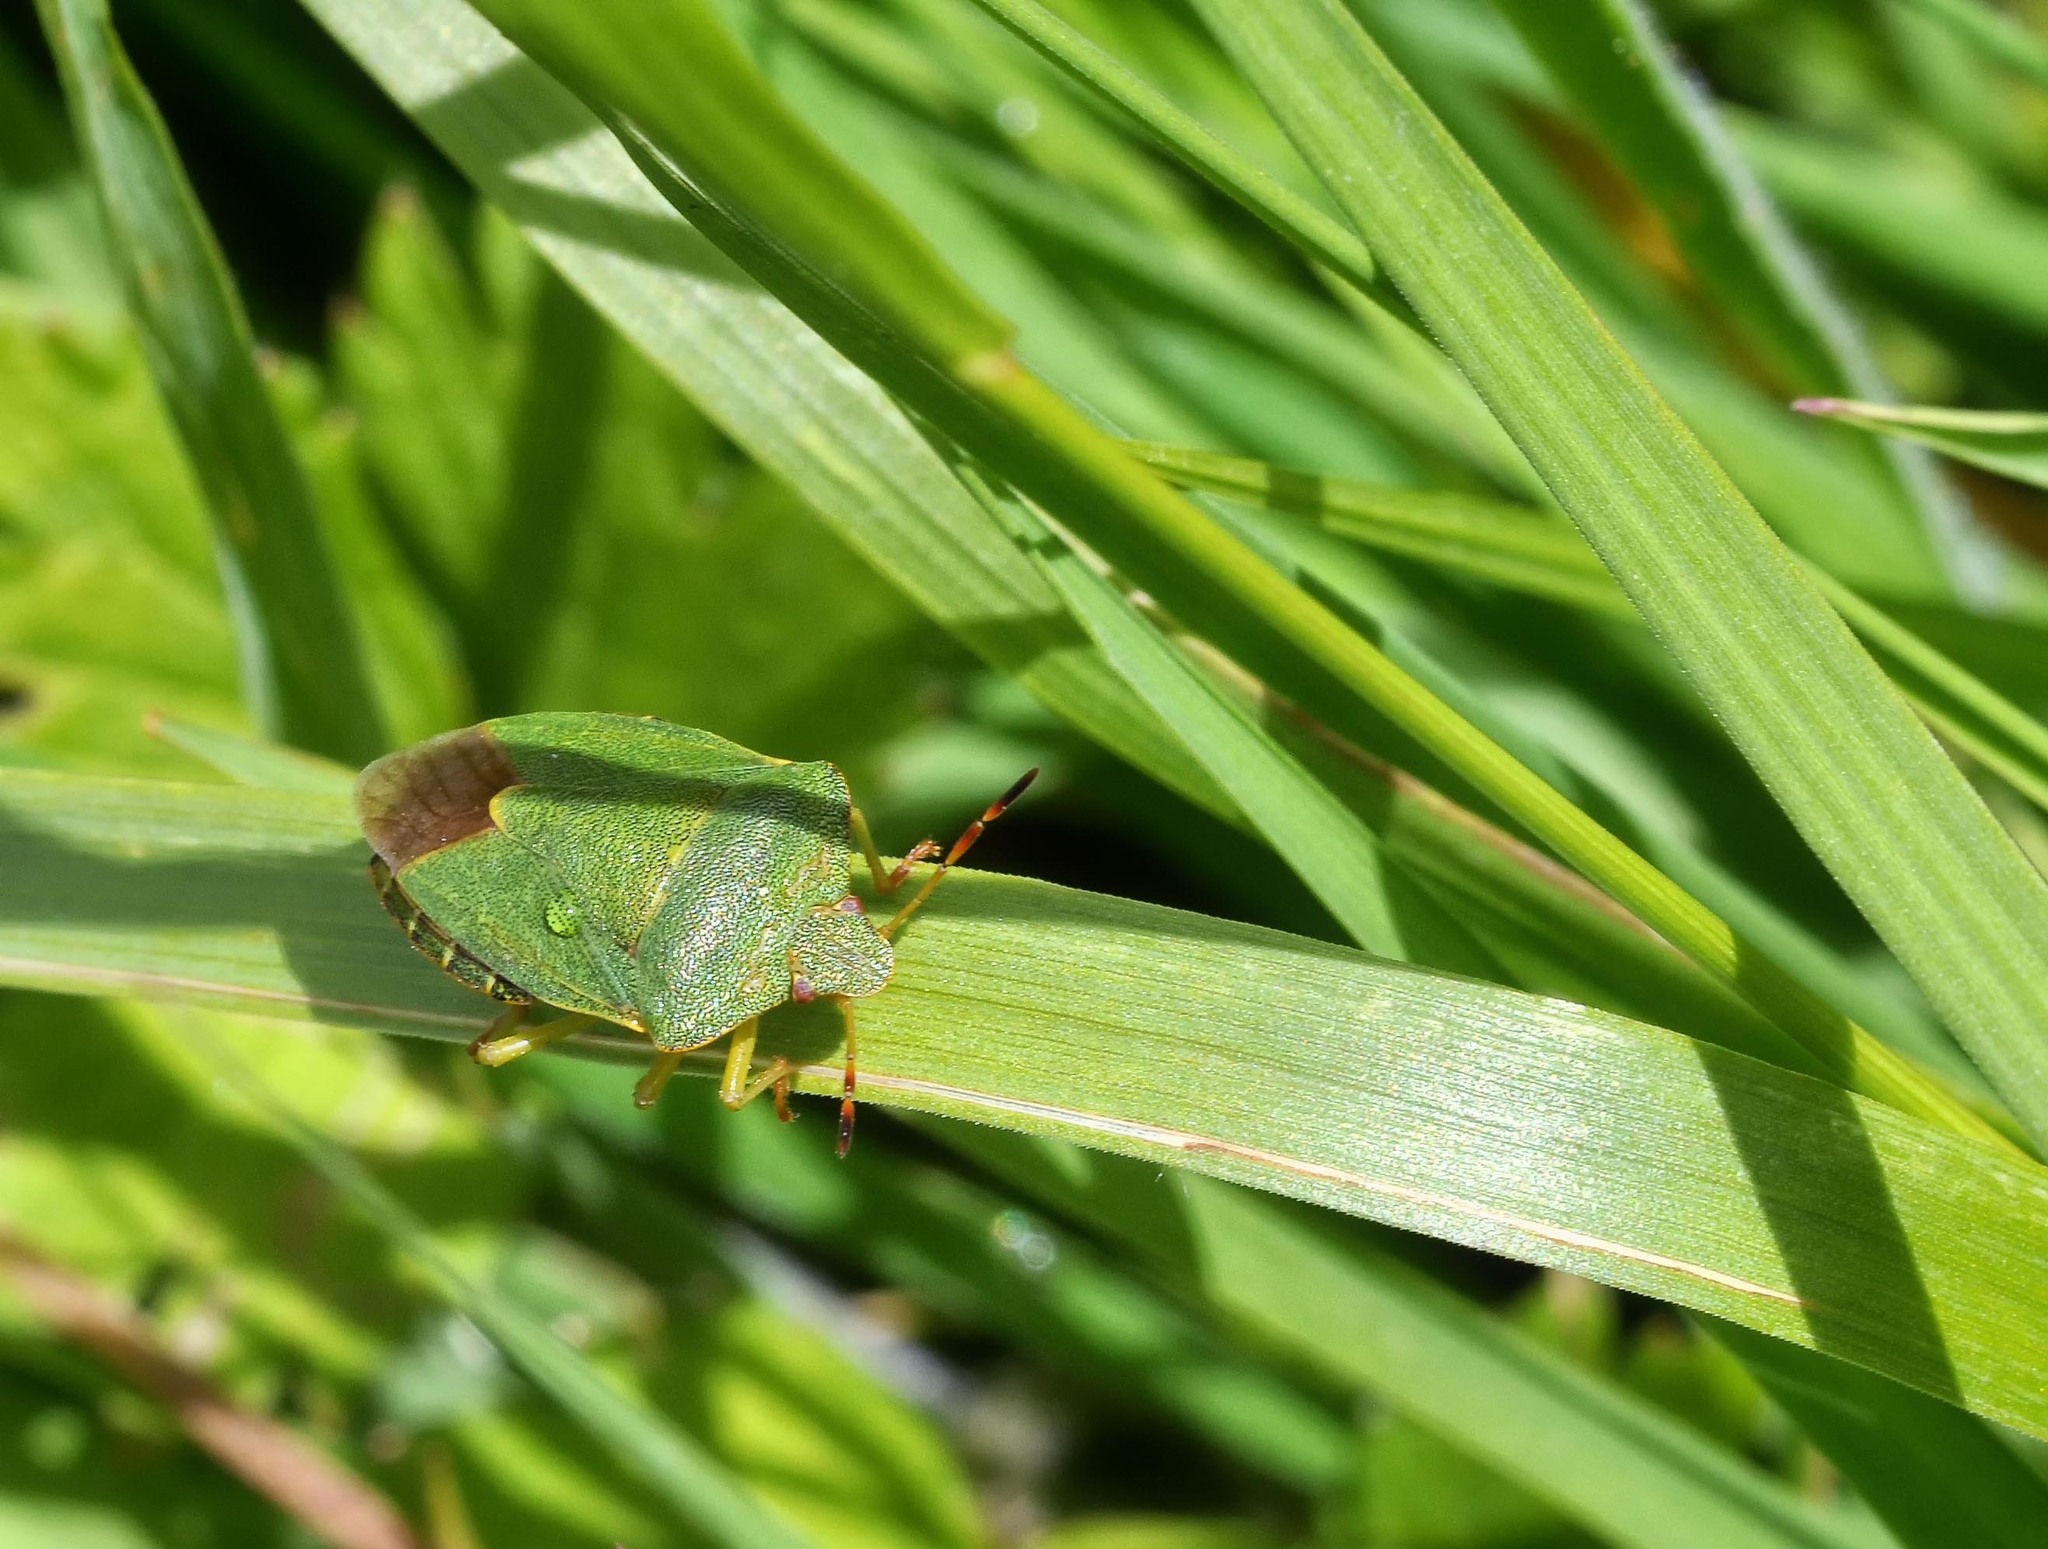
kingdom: Animalia
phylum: Arthropoda
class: Insecta
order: Hemiptera
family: Pentatomidae
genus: Palomena
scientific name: Palomena prasina
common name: Green shieldbug
